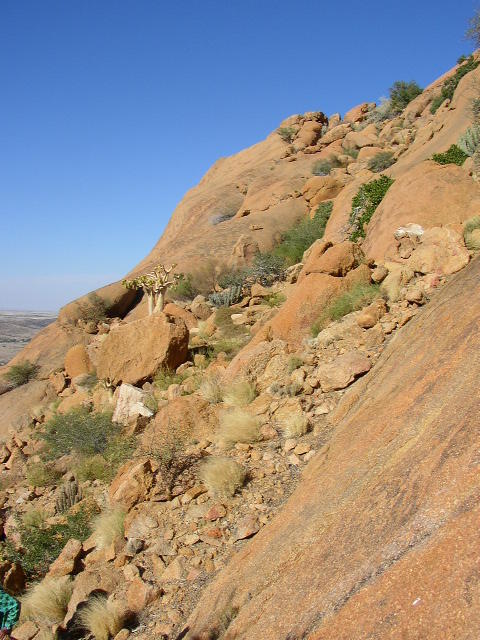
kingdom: Plantae
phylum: Tracheophyta
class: Magnoliopsida
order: Vitales
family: Vitaceae
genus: Cyphostemma
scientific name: Cyphostemma currorii
